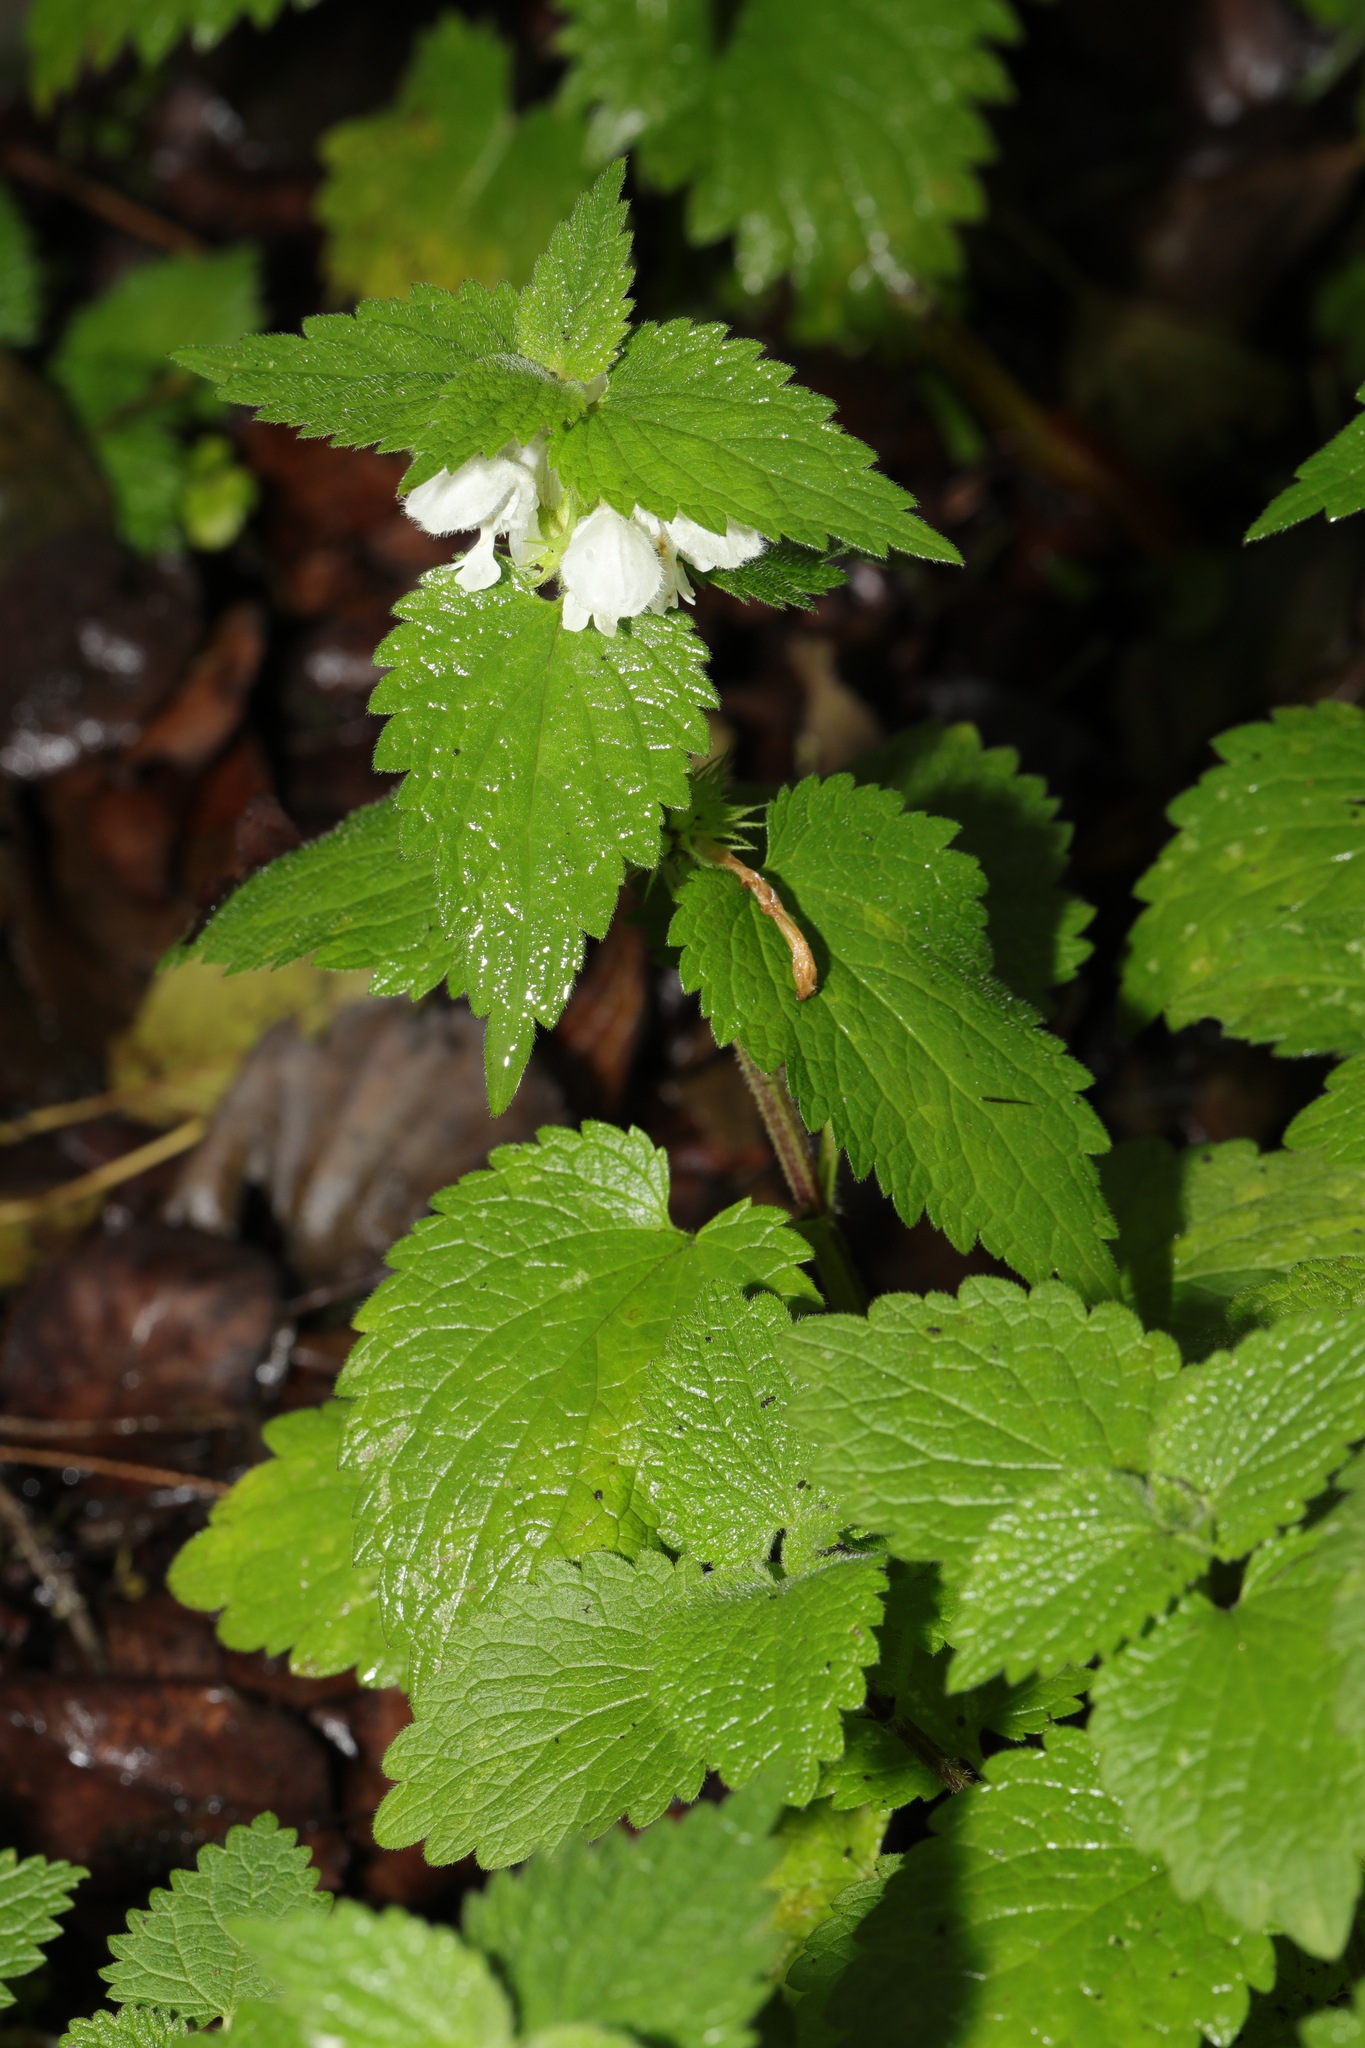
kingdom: Plantae
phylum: Tracheophyta
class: Magnoliopsida
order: Lamiales
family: Lamiaceae
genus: Lamium
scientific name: Lamium album
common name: White dead-nettle
